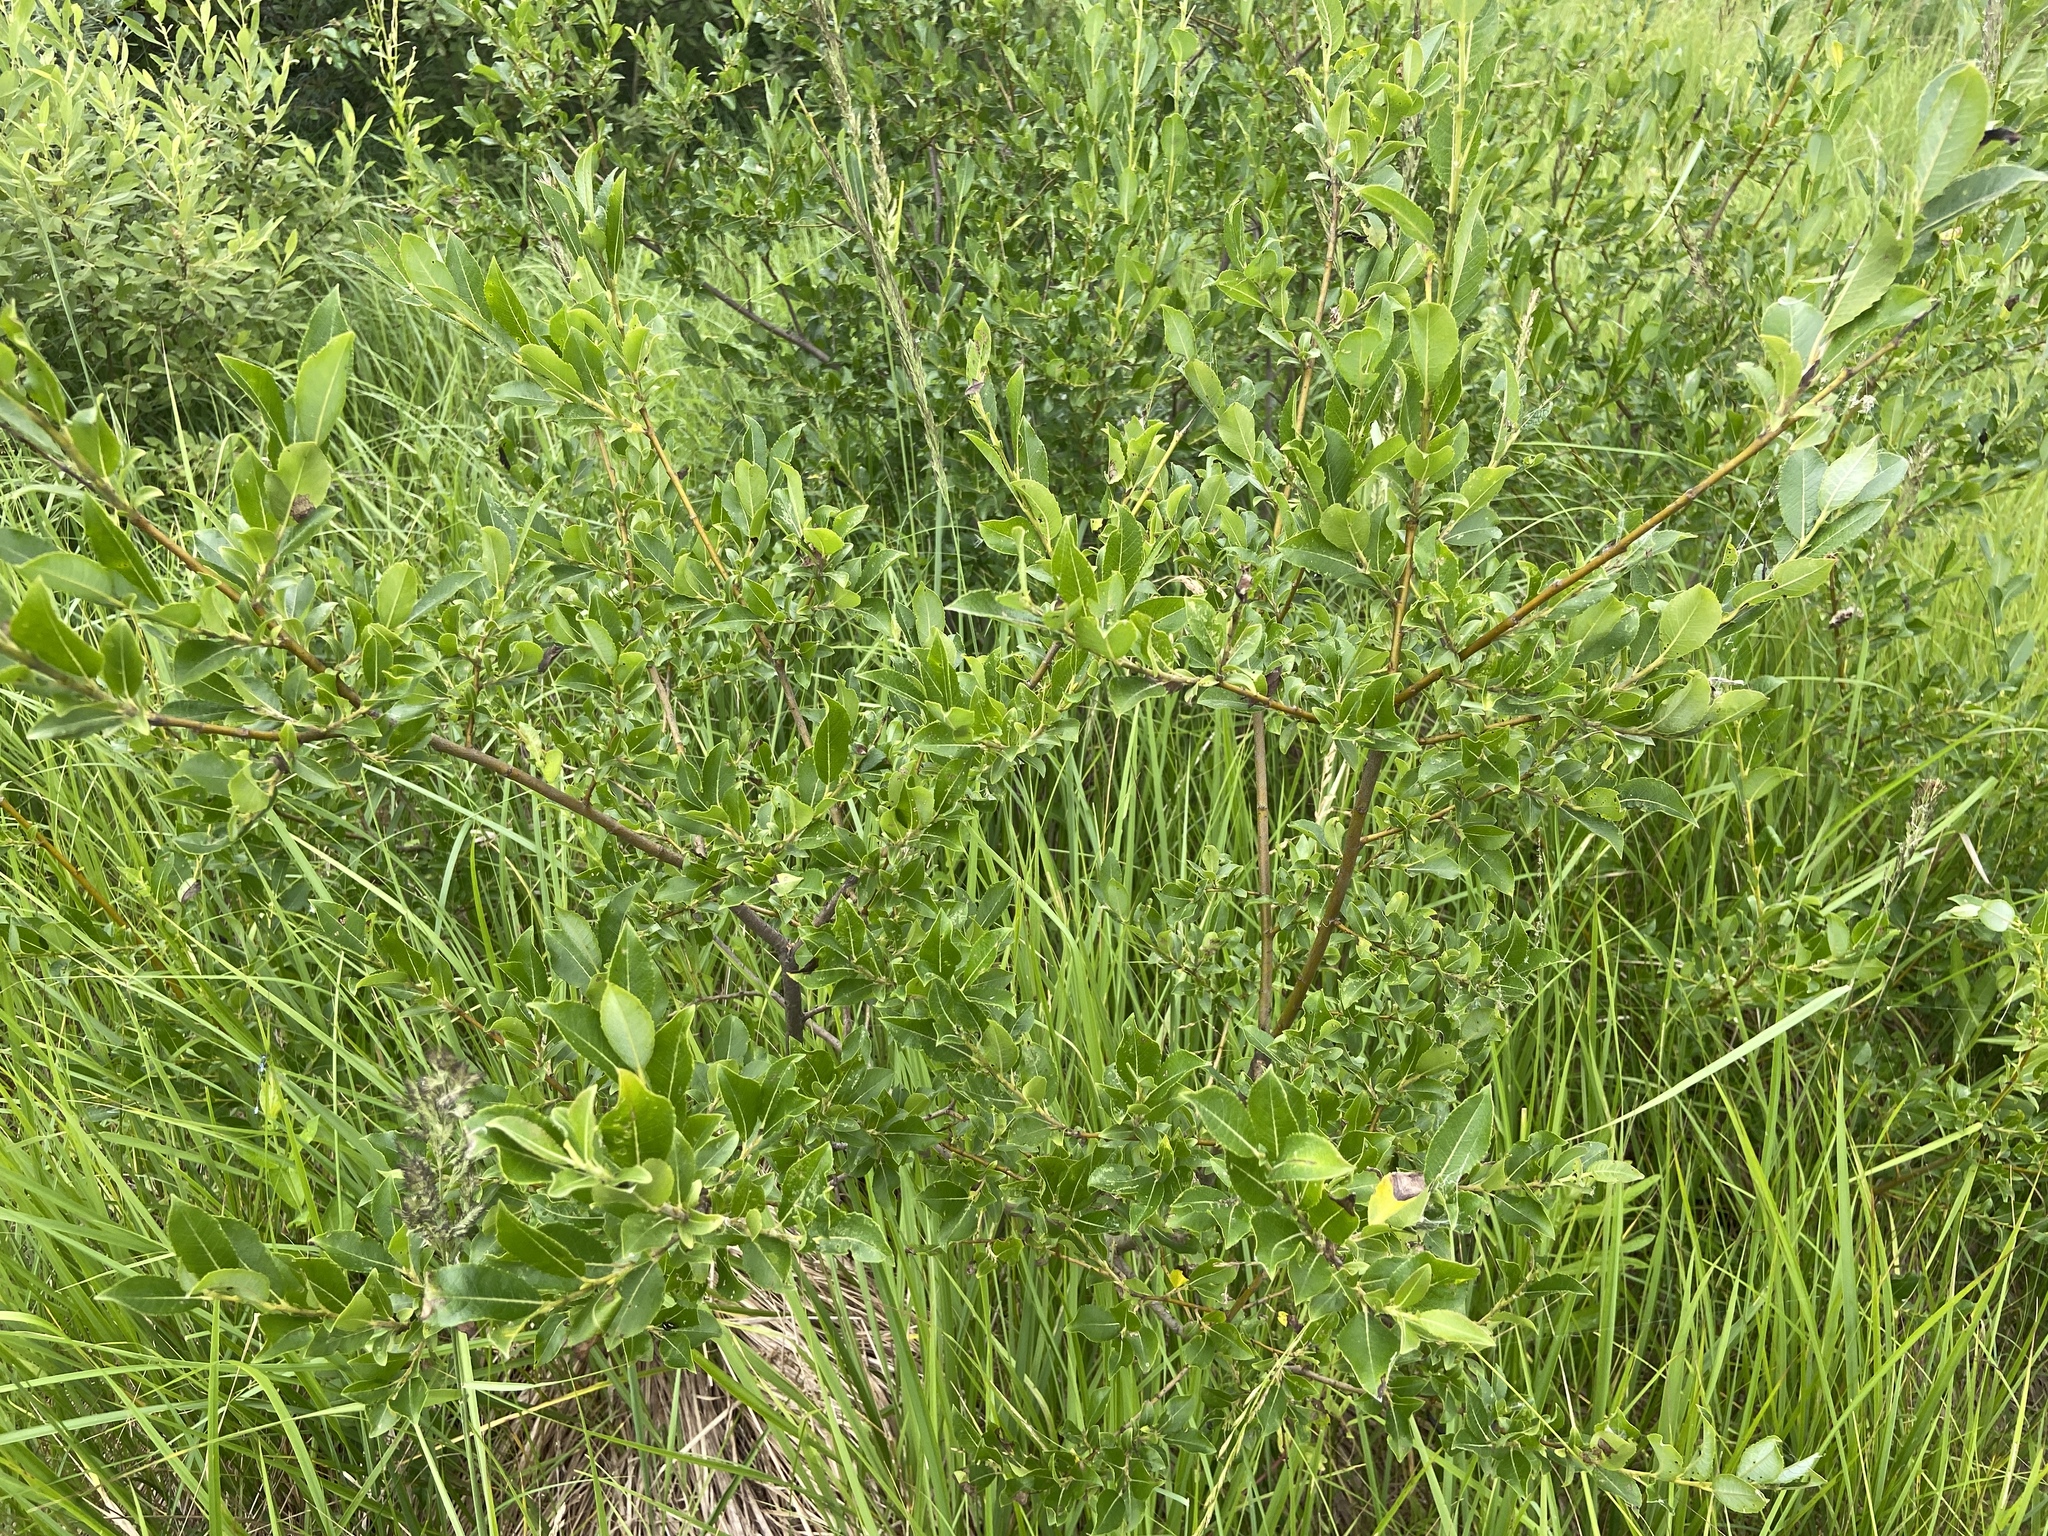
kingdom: Plantae
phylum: Tracheophyta
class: Magnoliopsida
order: Malpighiales
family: Salicaceae
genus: Salix
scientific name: Salix myrsinifolia
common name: Dark-leaved willow
